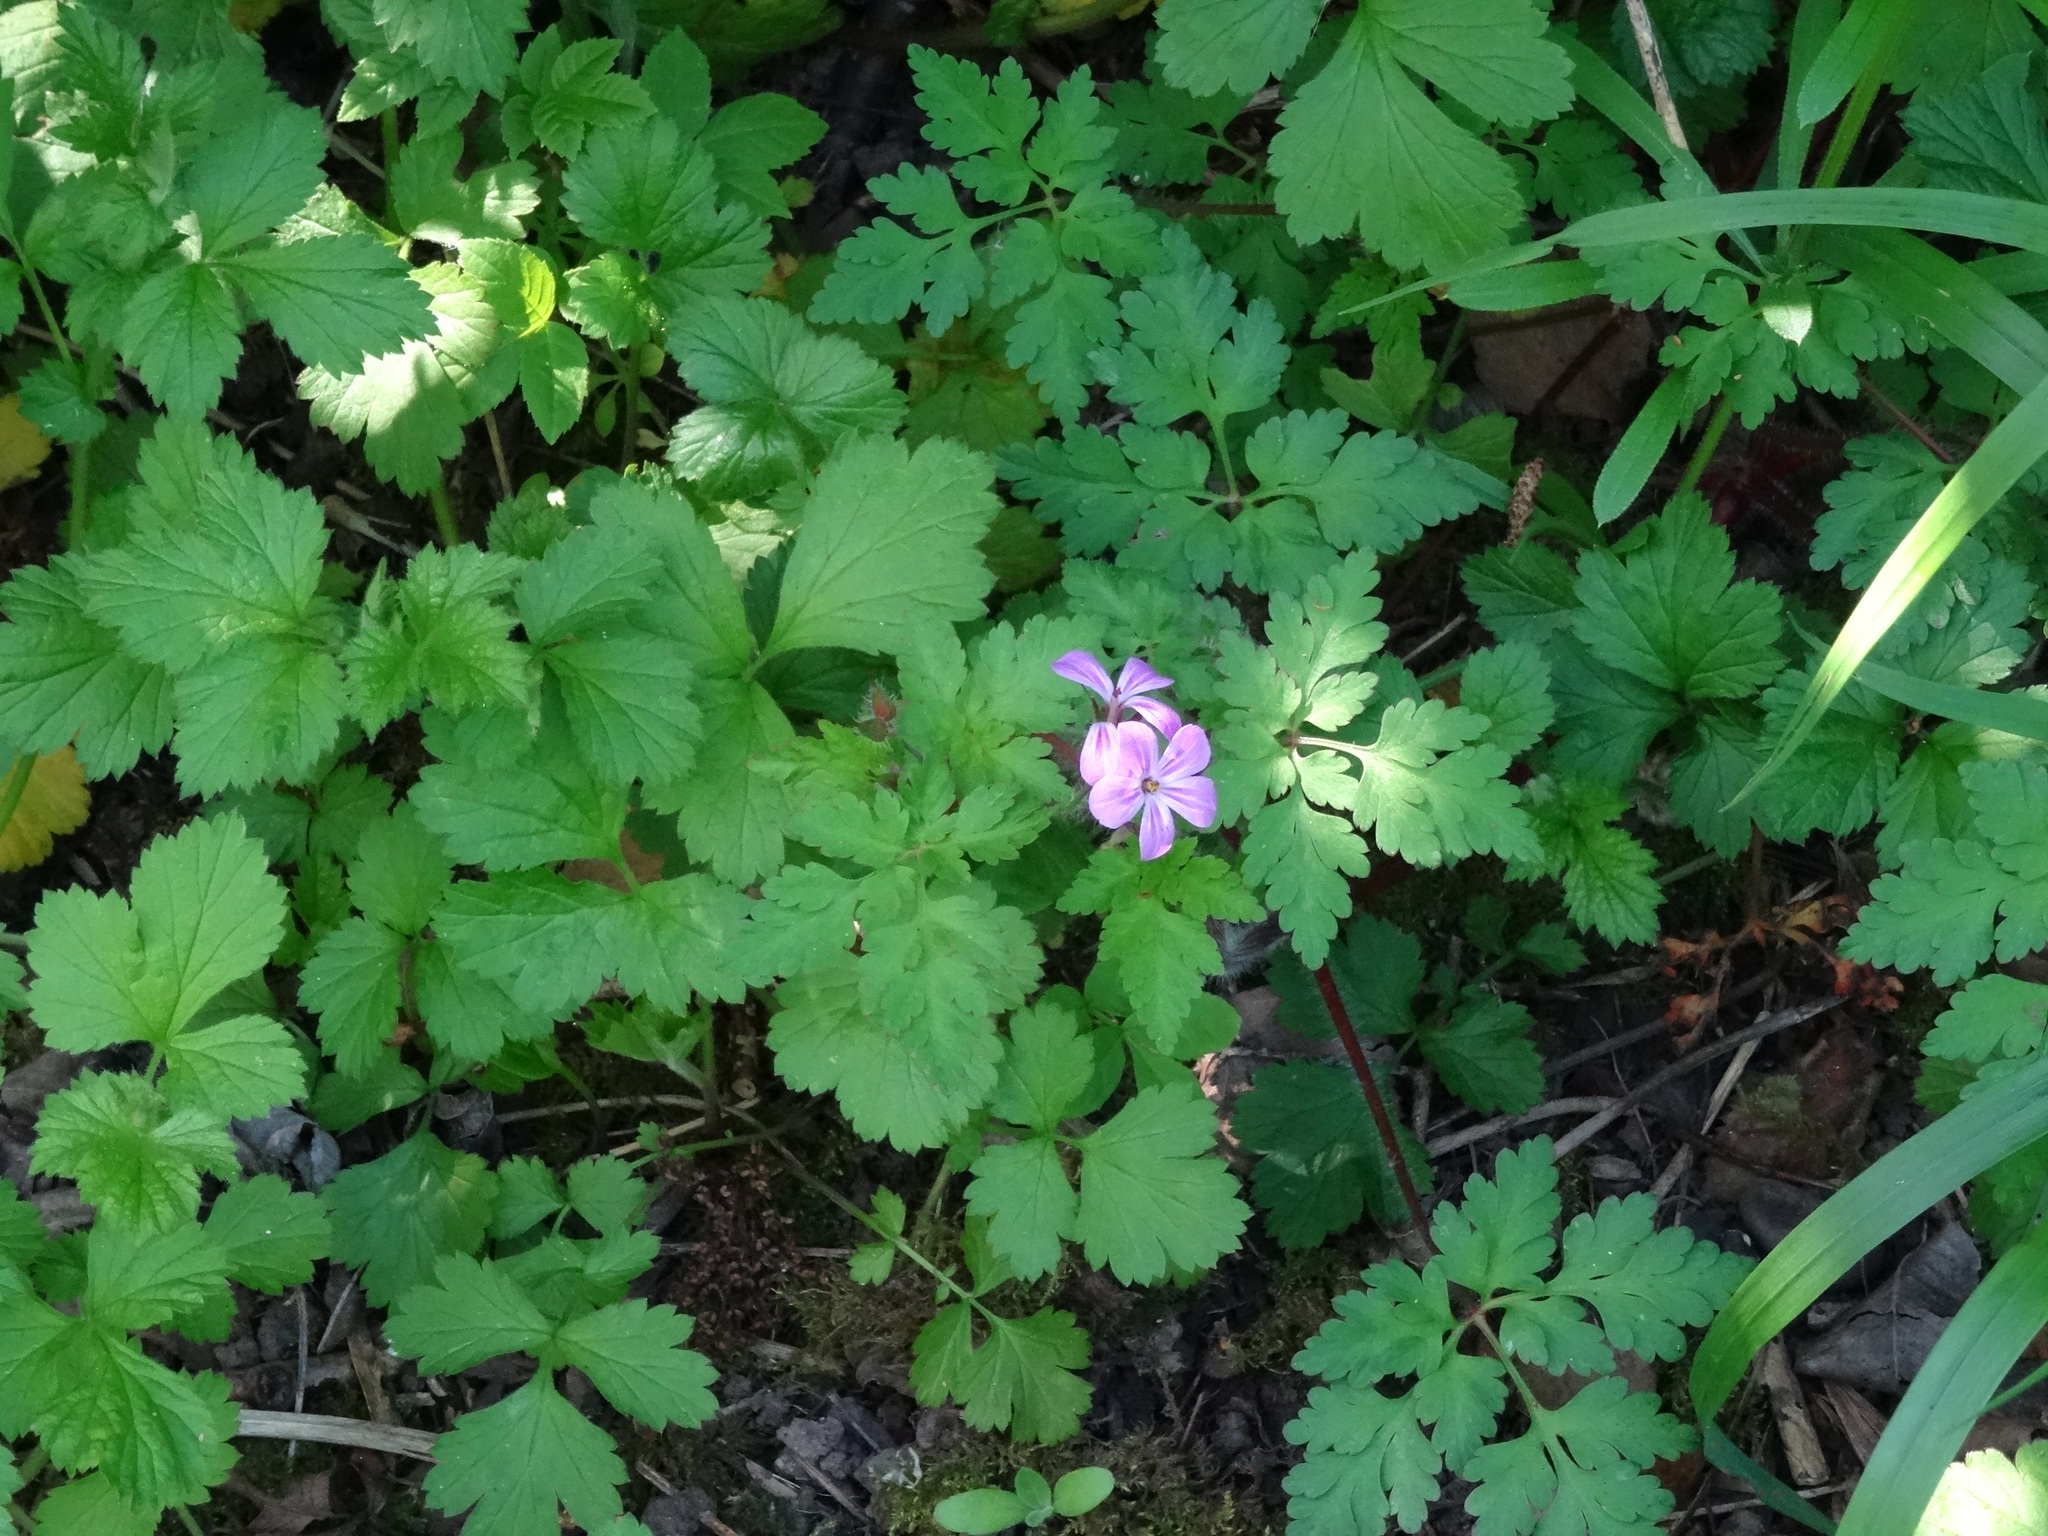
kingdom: Plantae
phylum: Tracheophyta
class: Magnoliopsida
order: Geraniales
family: Geraniaceae
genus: Geranium
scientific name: Geranium robertianum
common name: Herb-robert
